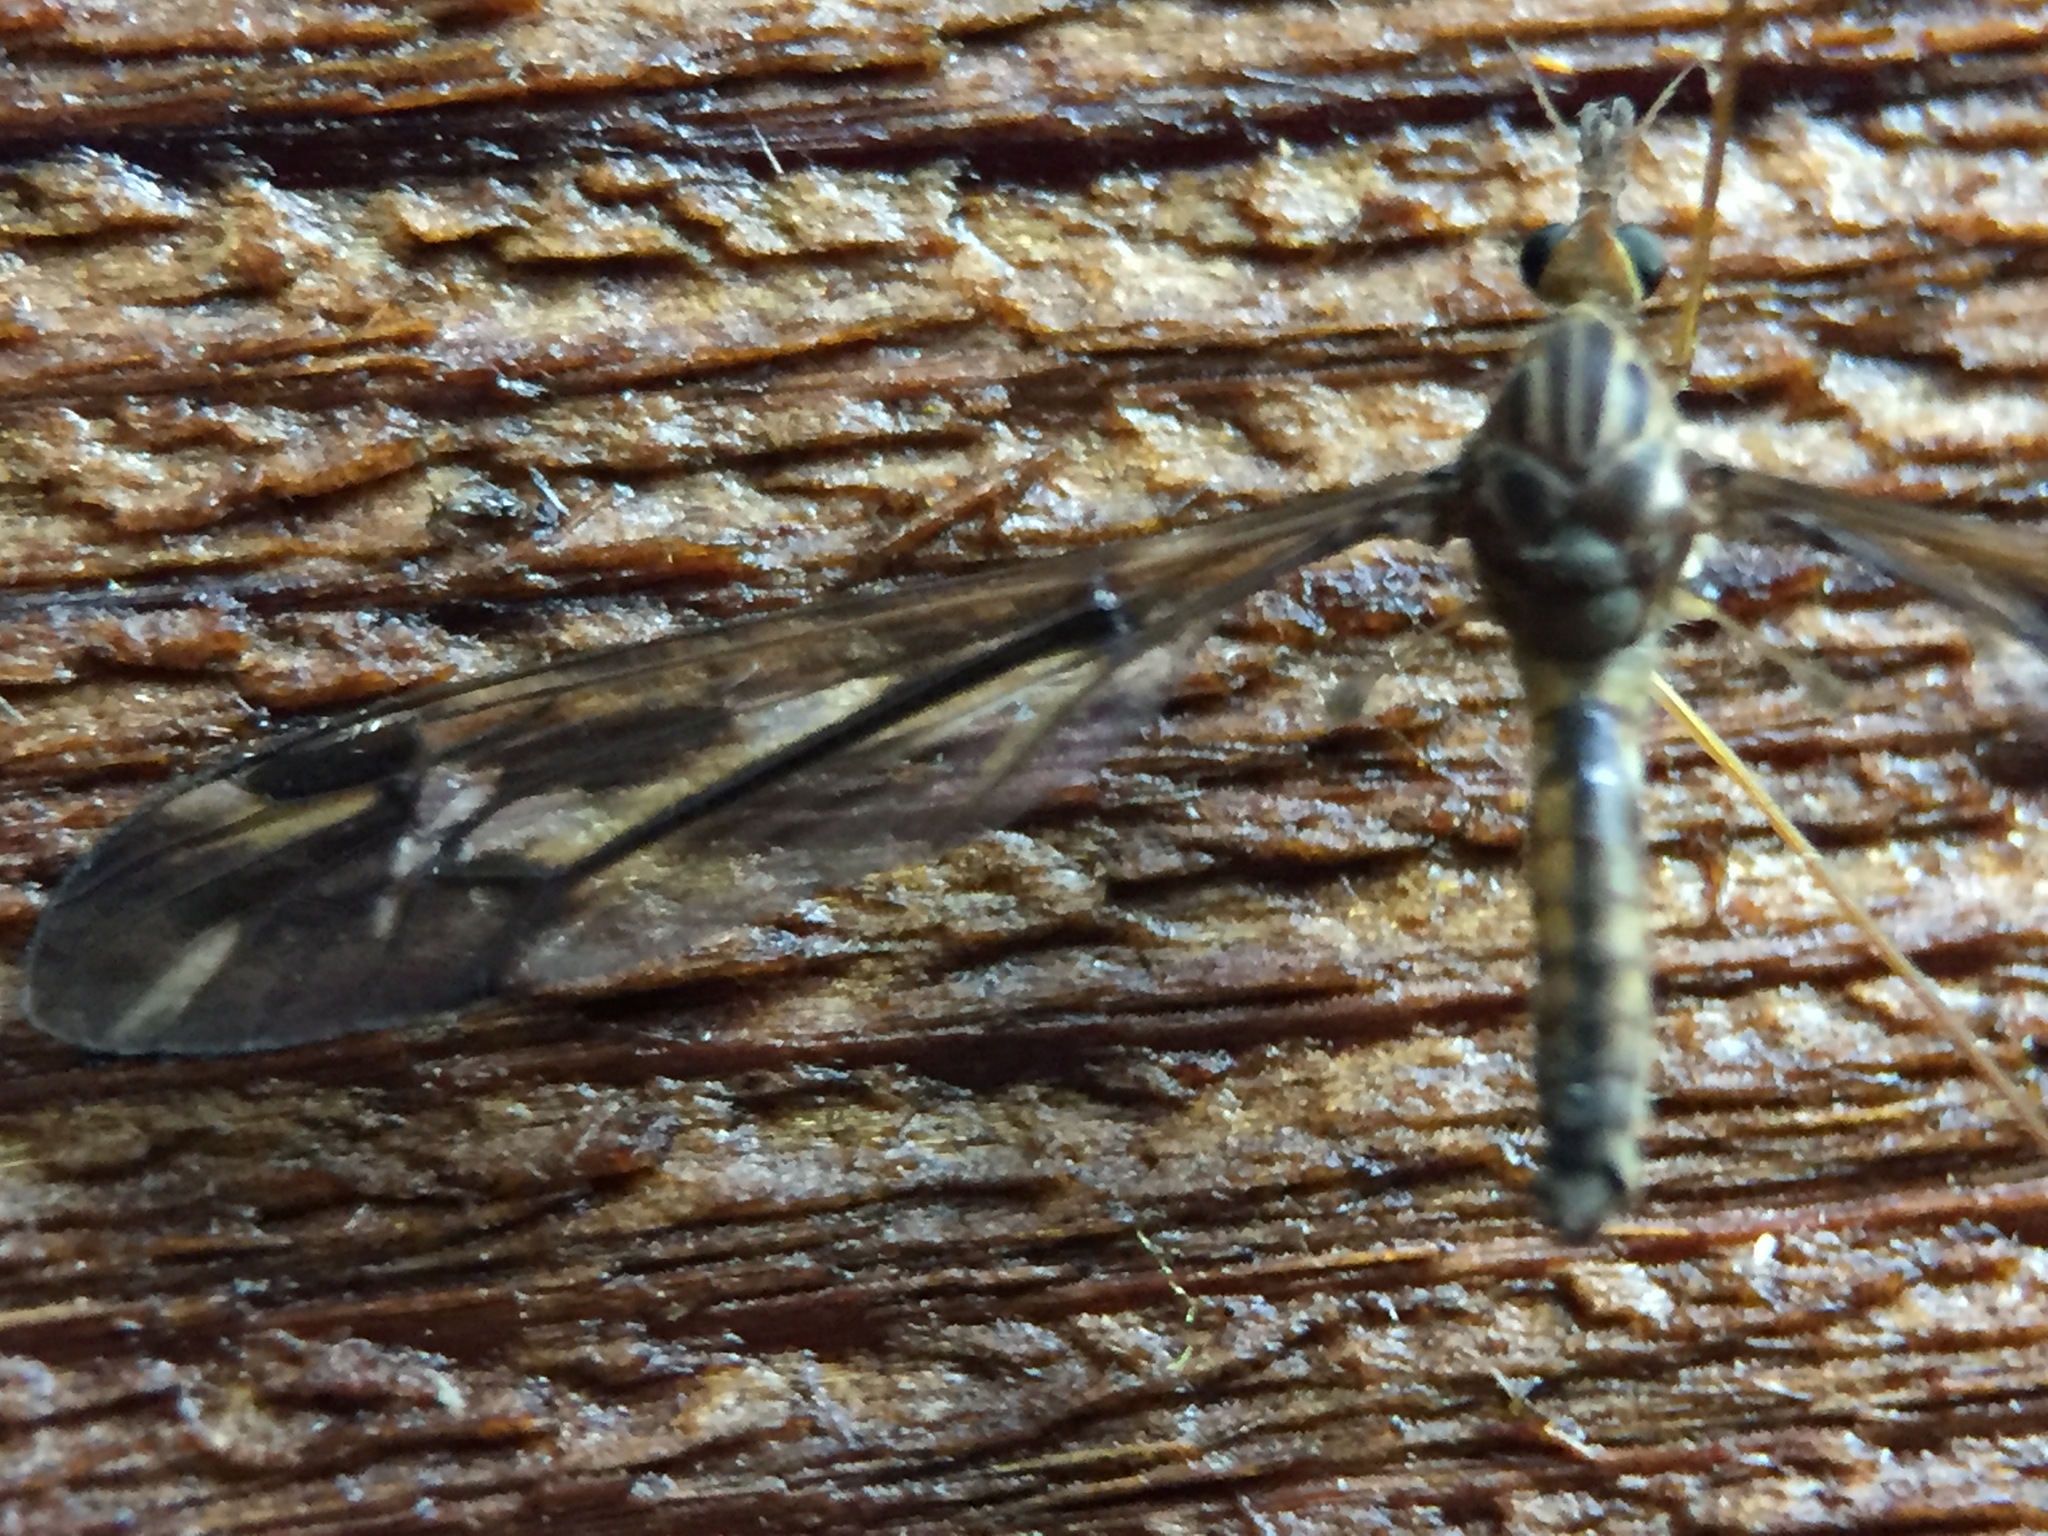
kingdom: Animalia
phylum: Arthropoda
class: Insecta
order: Diptera
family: Tipulidae
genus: Leptotarsus
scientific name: Leptotarsus huttoni
